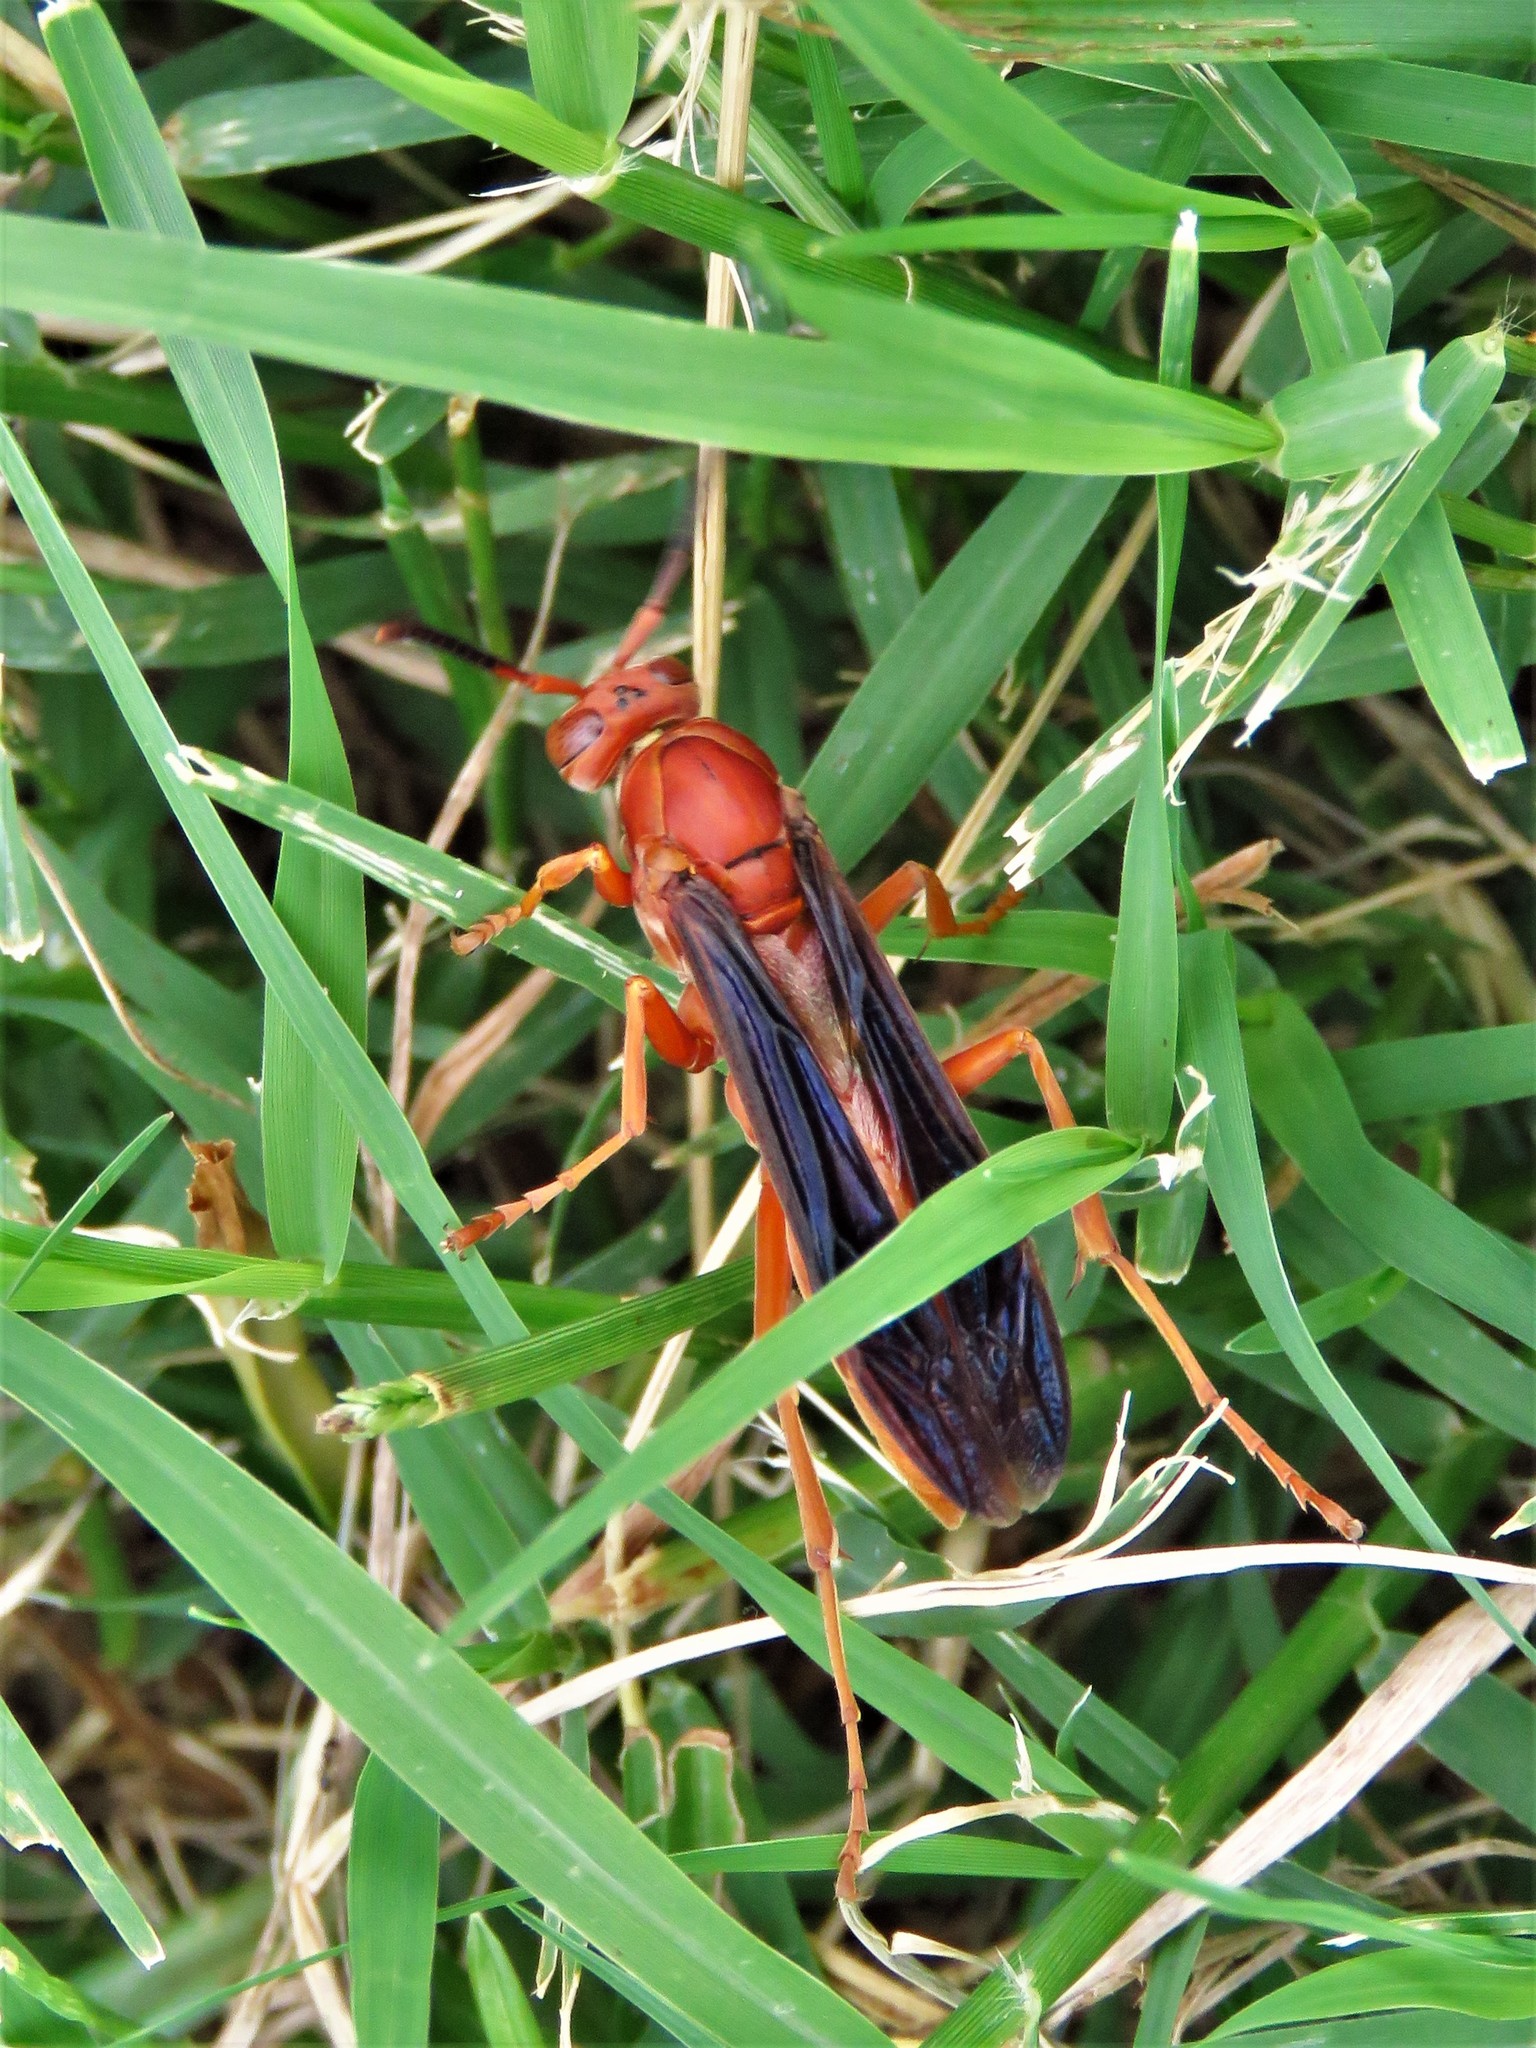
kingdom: Animalia
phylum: Arthropoda
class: Insecta
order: Hymenoptera
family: Vespidae
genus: Fuscopolistes
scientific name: Fuscopolistes
